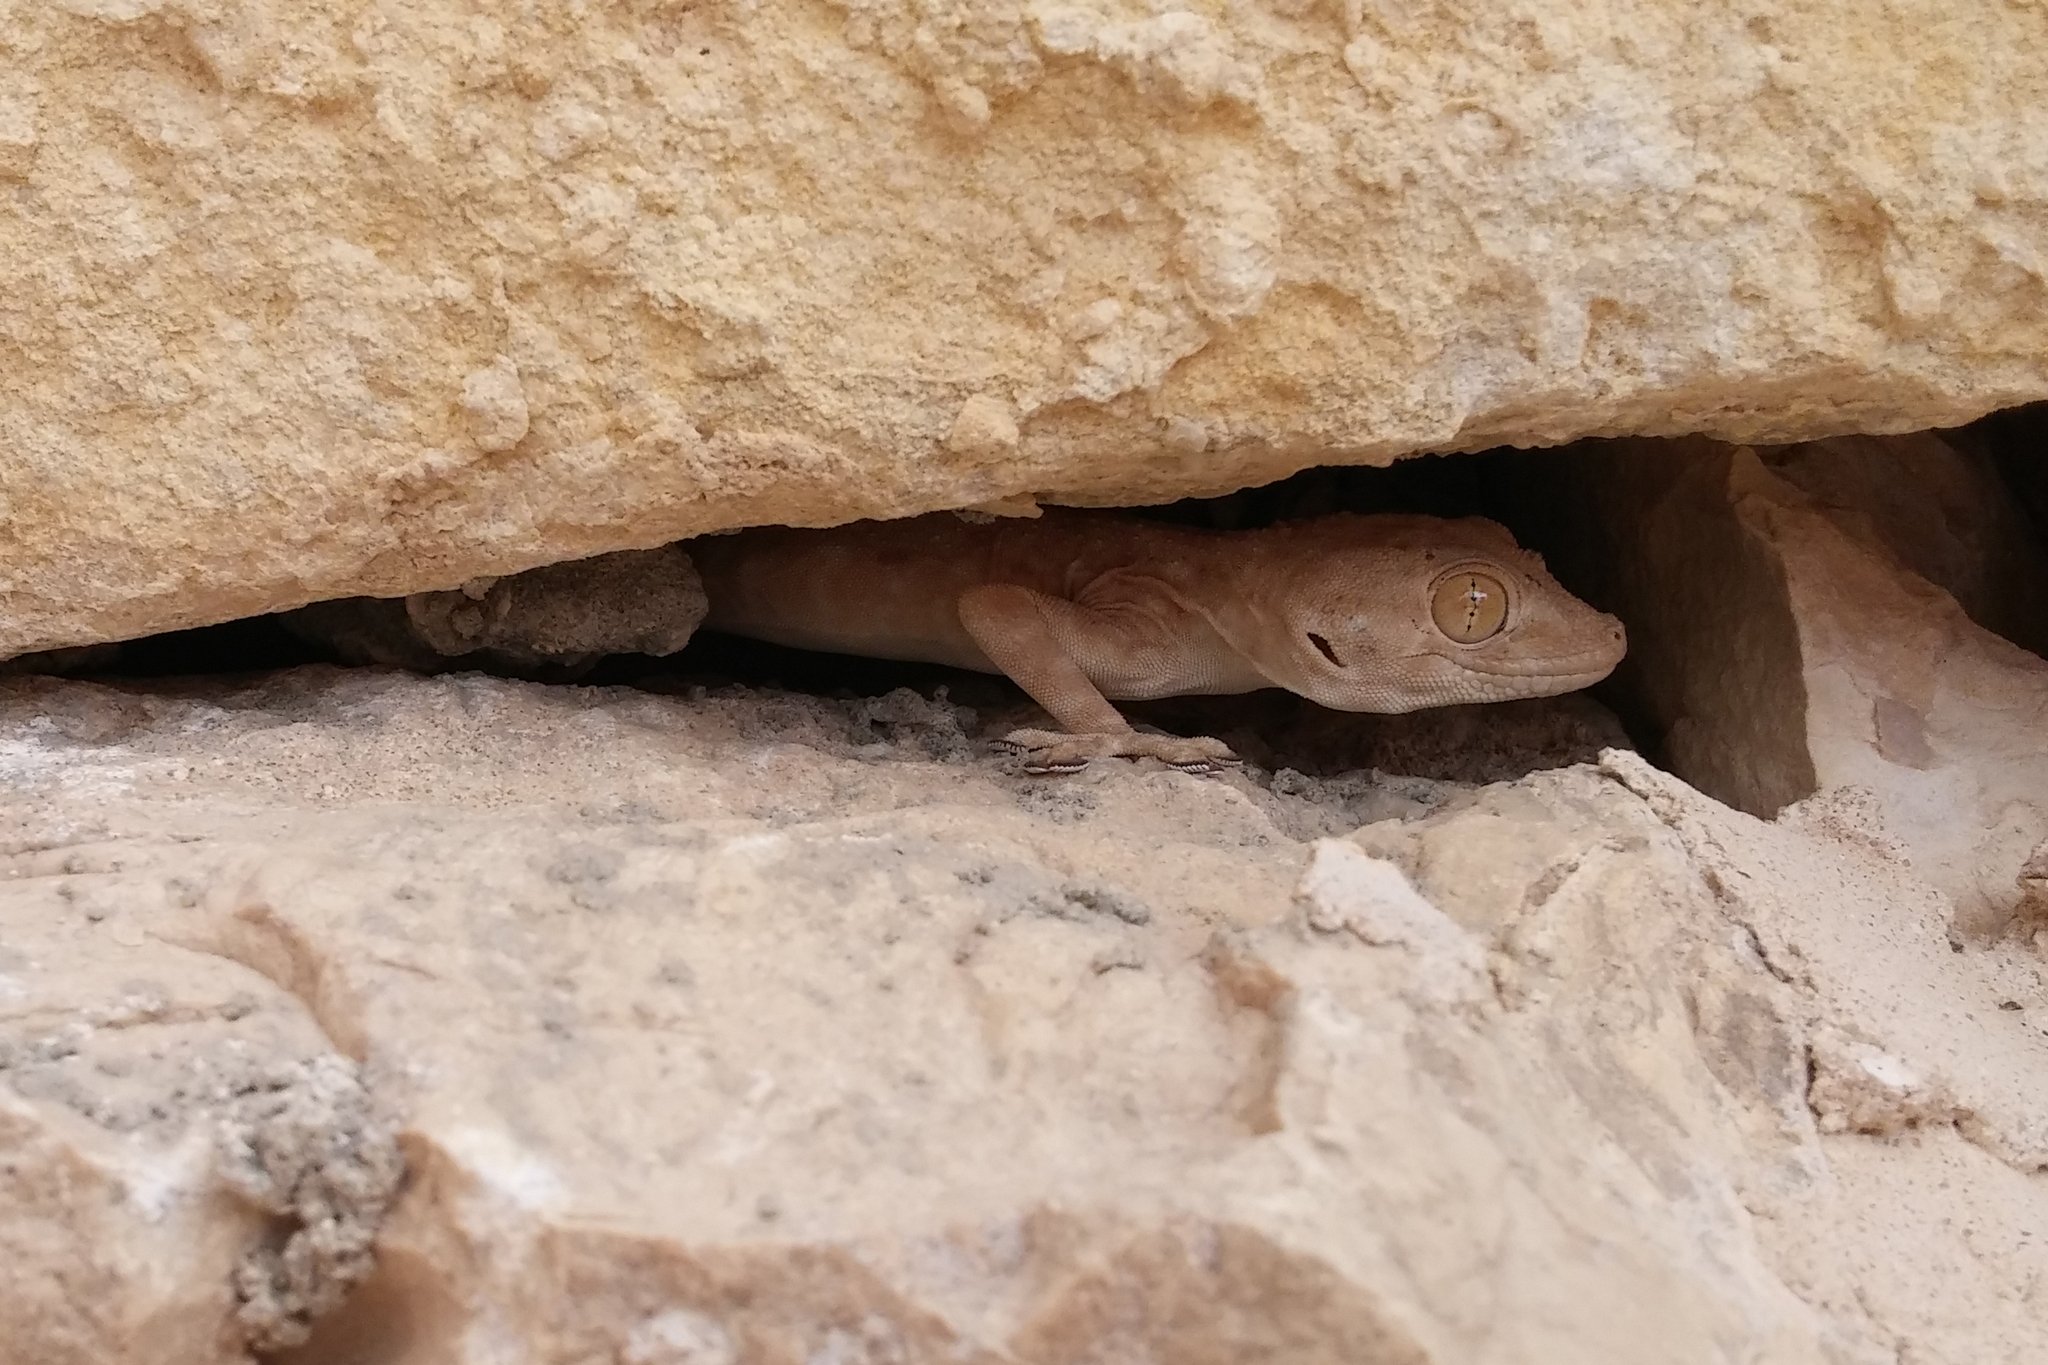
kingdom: Animalia
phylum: Chordata
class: Squamata
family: Phyllodactylidae
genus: Ptyodactylus
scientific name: Ptyodactylus guttatus
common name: Sinai fan-fingered gecko
